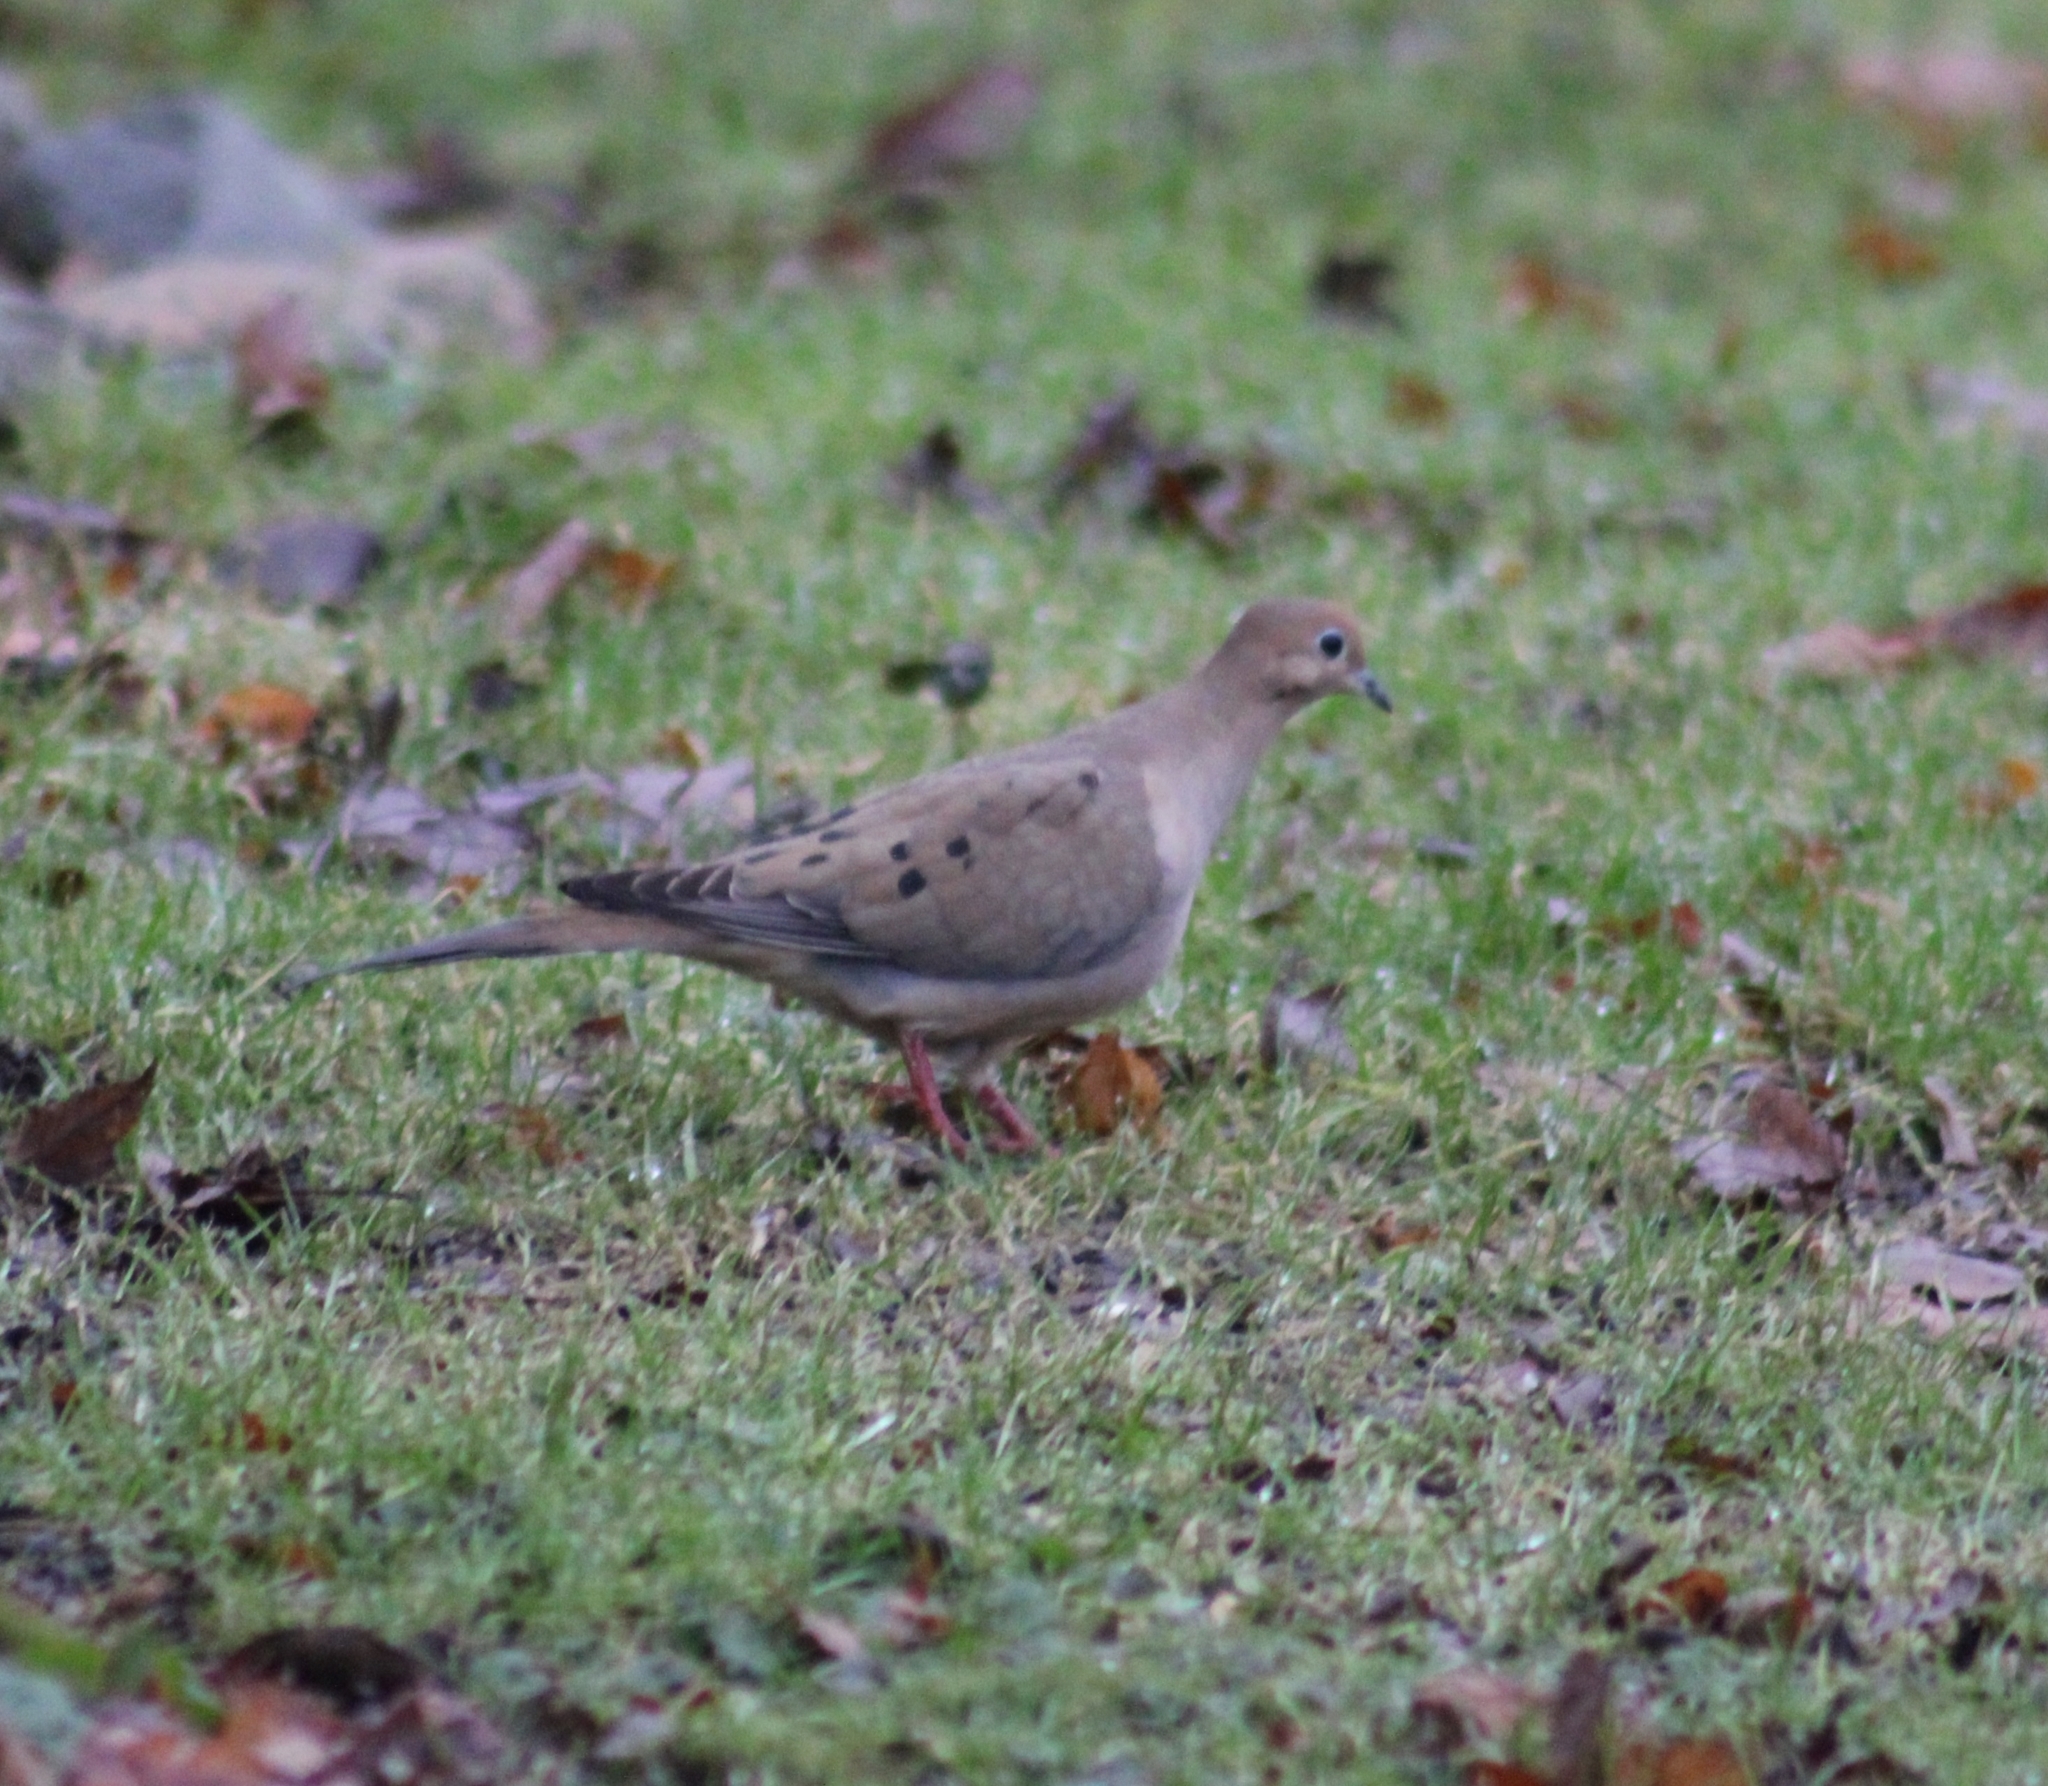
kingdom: Animalia
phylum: Chordata
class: Aves
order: Columbiformes
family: Columbidae
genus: Zenaida
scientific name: Zenaida macroura
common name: Mourning dove
